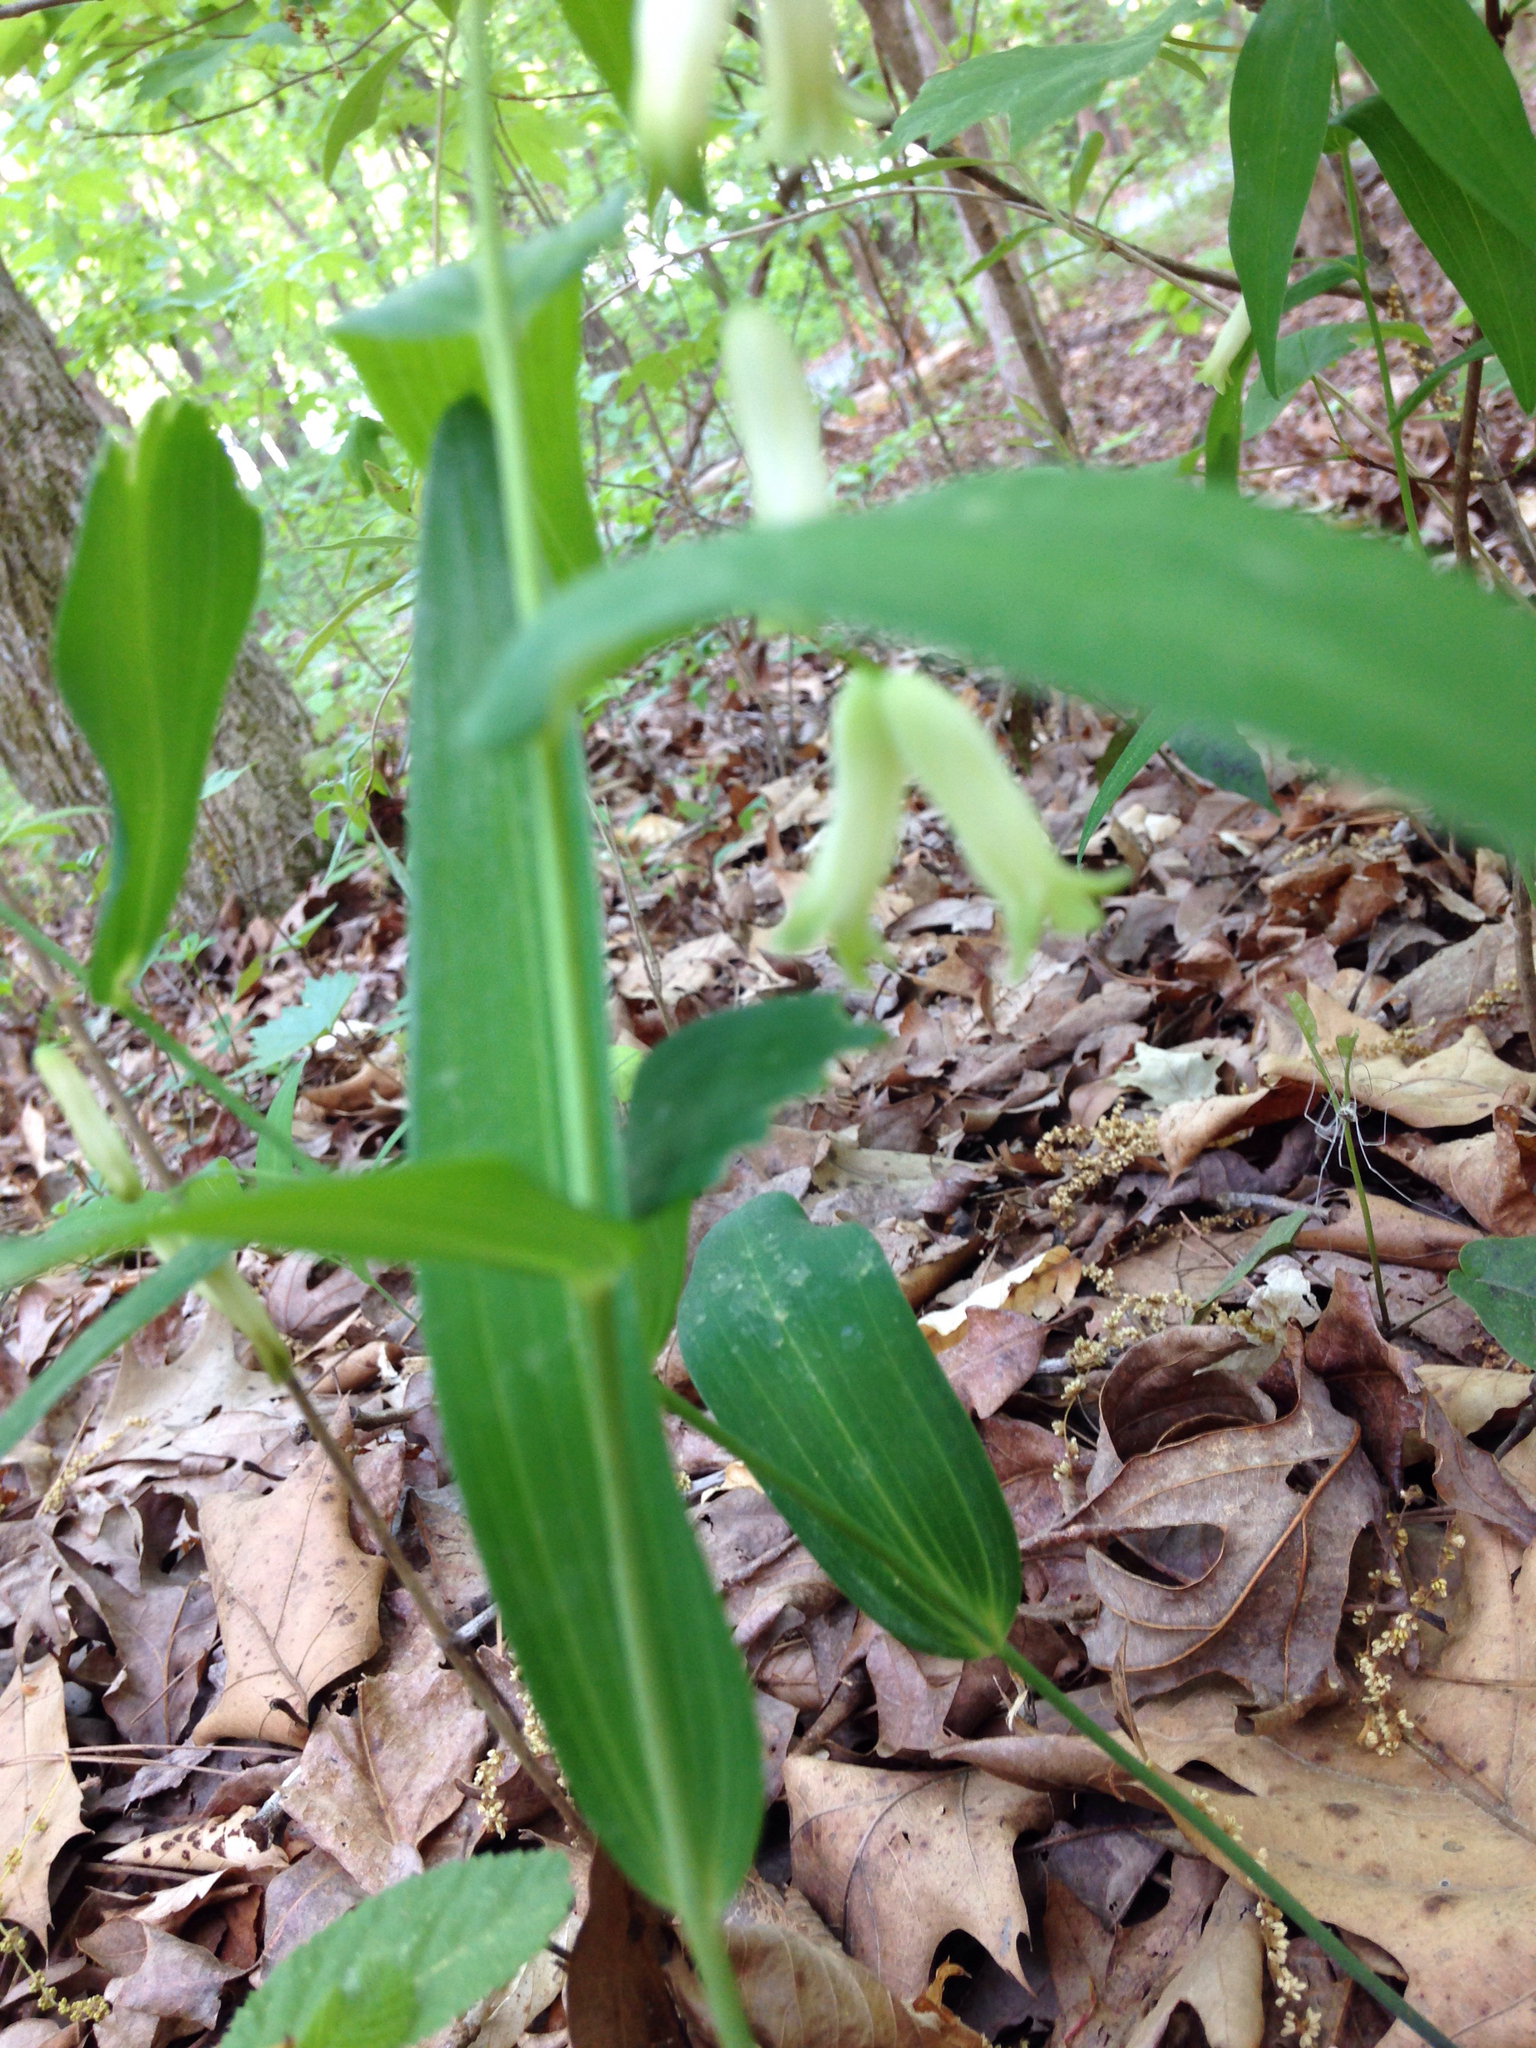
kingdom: Plantae
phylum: Tracheophyta
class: Liliopsida
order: Asparagales
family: Asparagaceae
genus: Polygonatum
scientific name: Polygonatum biflorum
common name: American solomon's-seal
